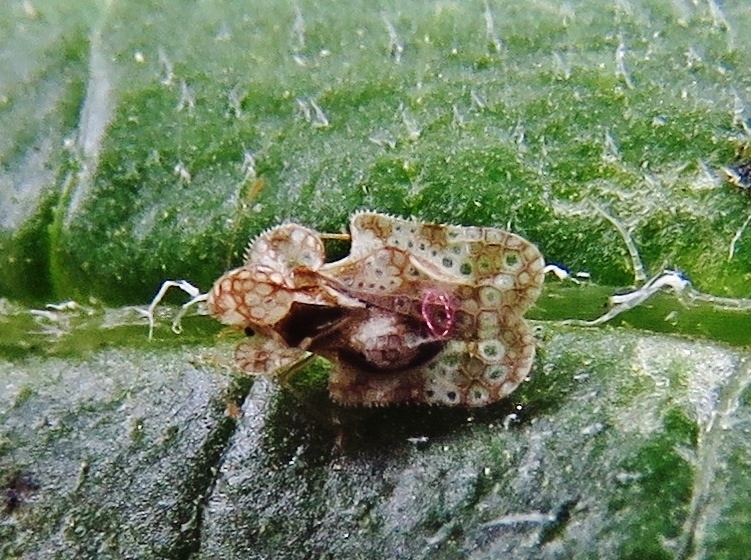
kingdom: Animalia
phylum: Arthropoda
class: Insecta
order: Hemiptera
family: Tingidae
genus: Corythucha
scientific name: Corythucha marmorata
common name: Chrysanthemum lace bug
